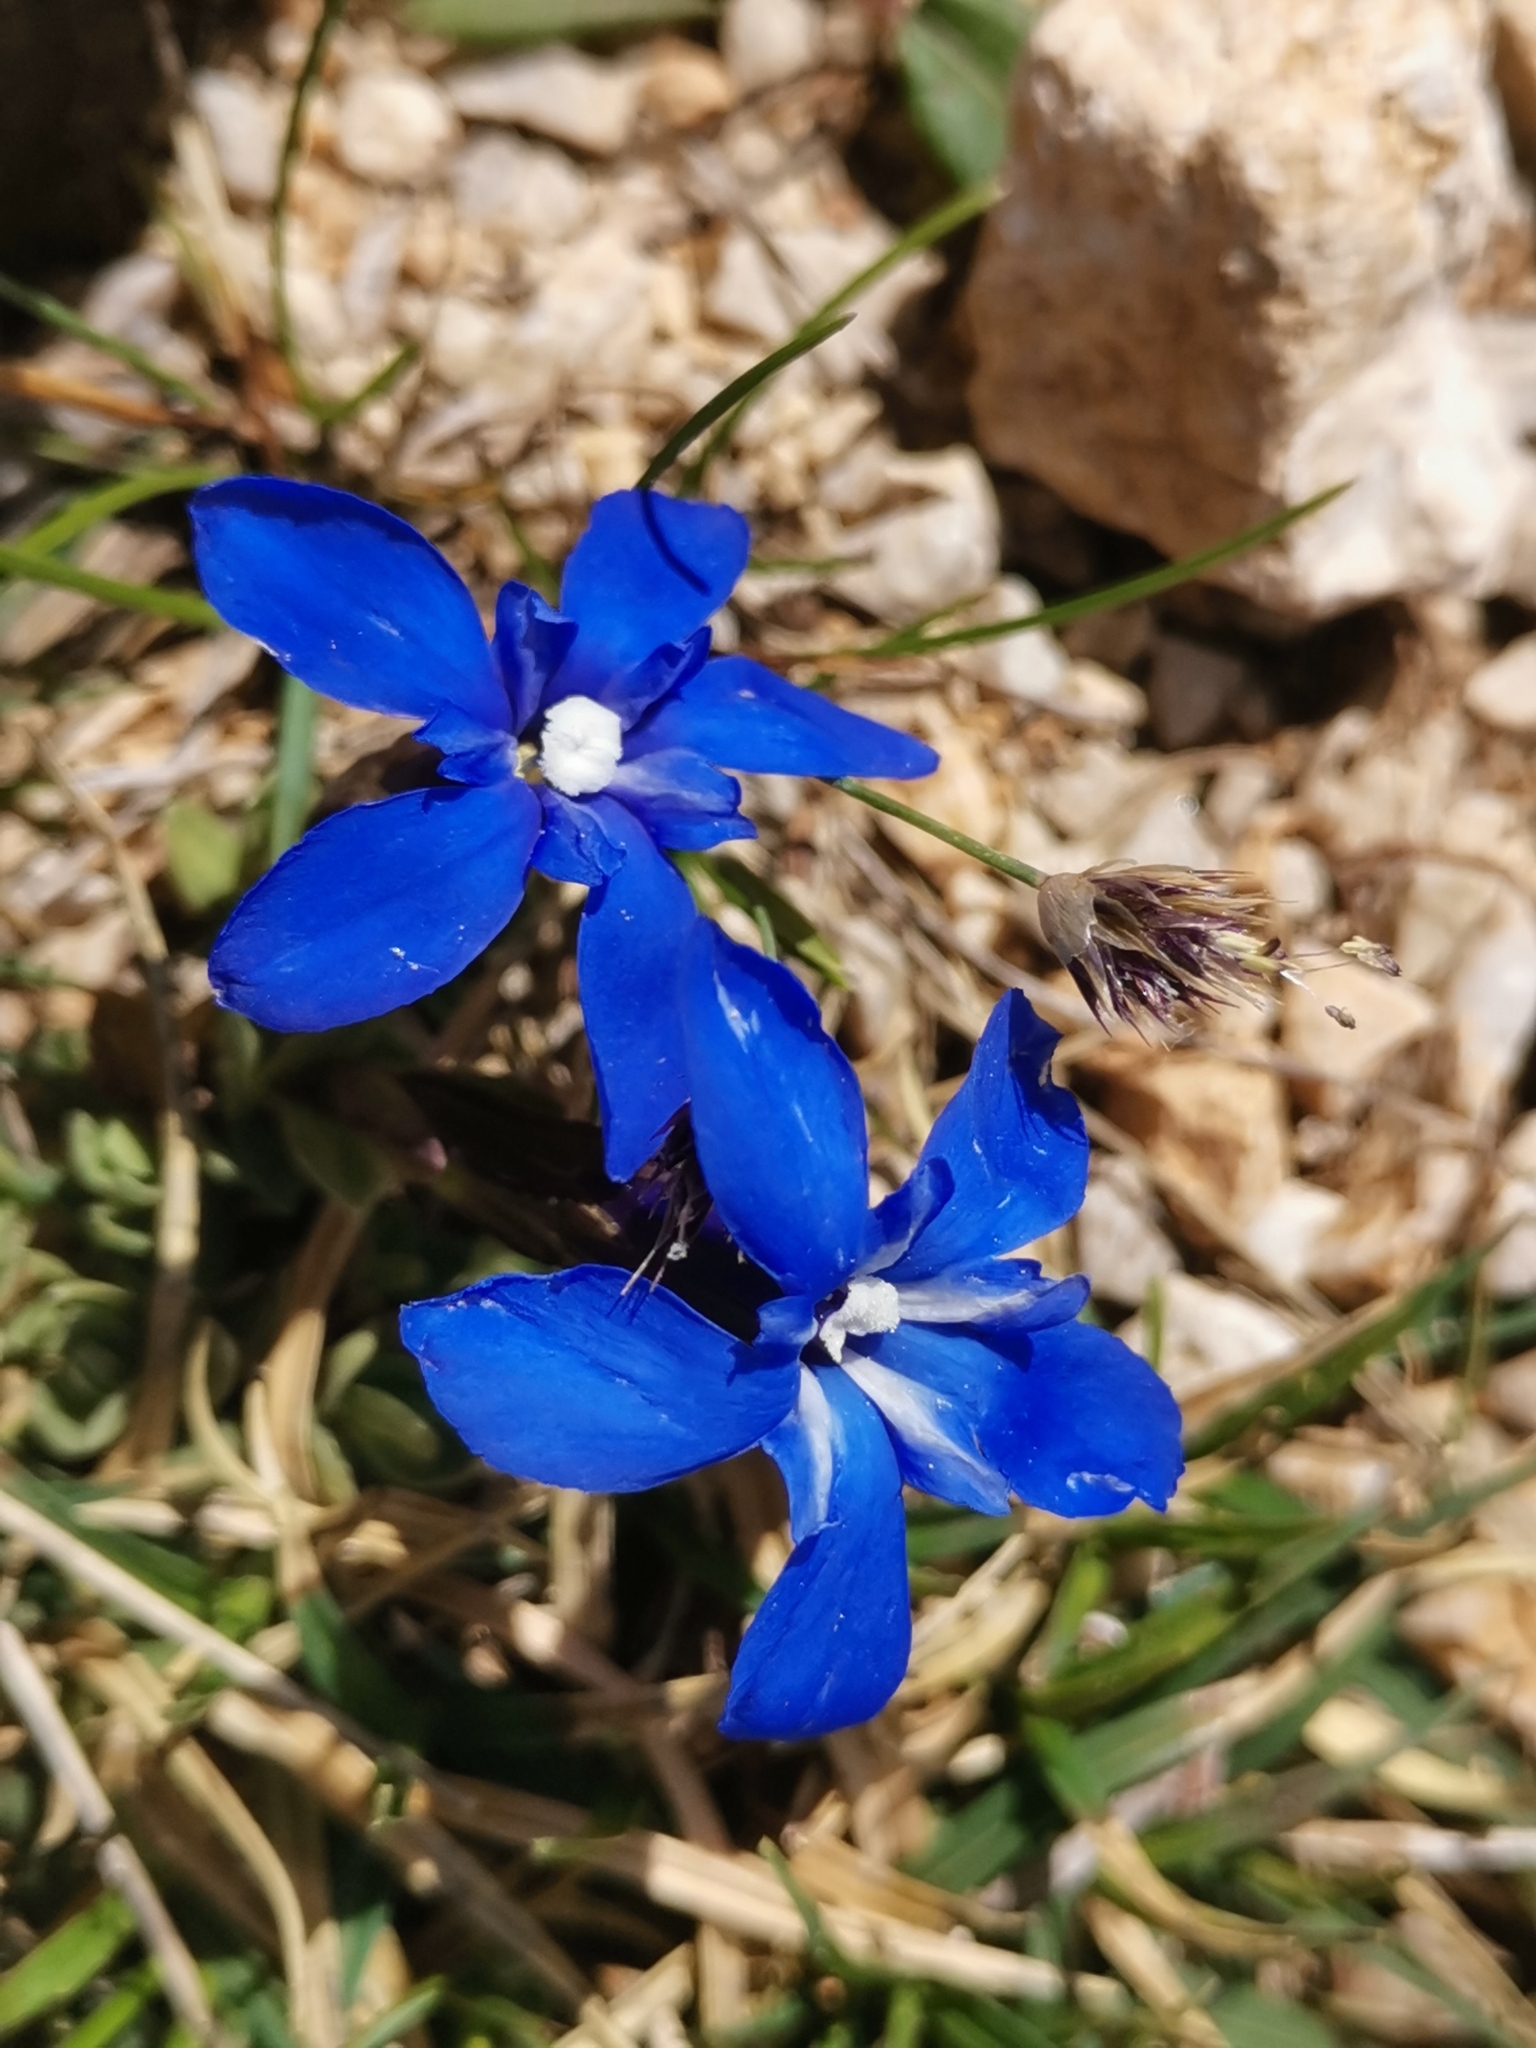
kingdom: Plantae
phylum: Tracheophyta
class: Magnoliopsida
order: Gentianales
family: Gentianaceae
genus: Gentiana
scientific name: Gentiana terglouensis
